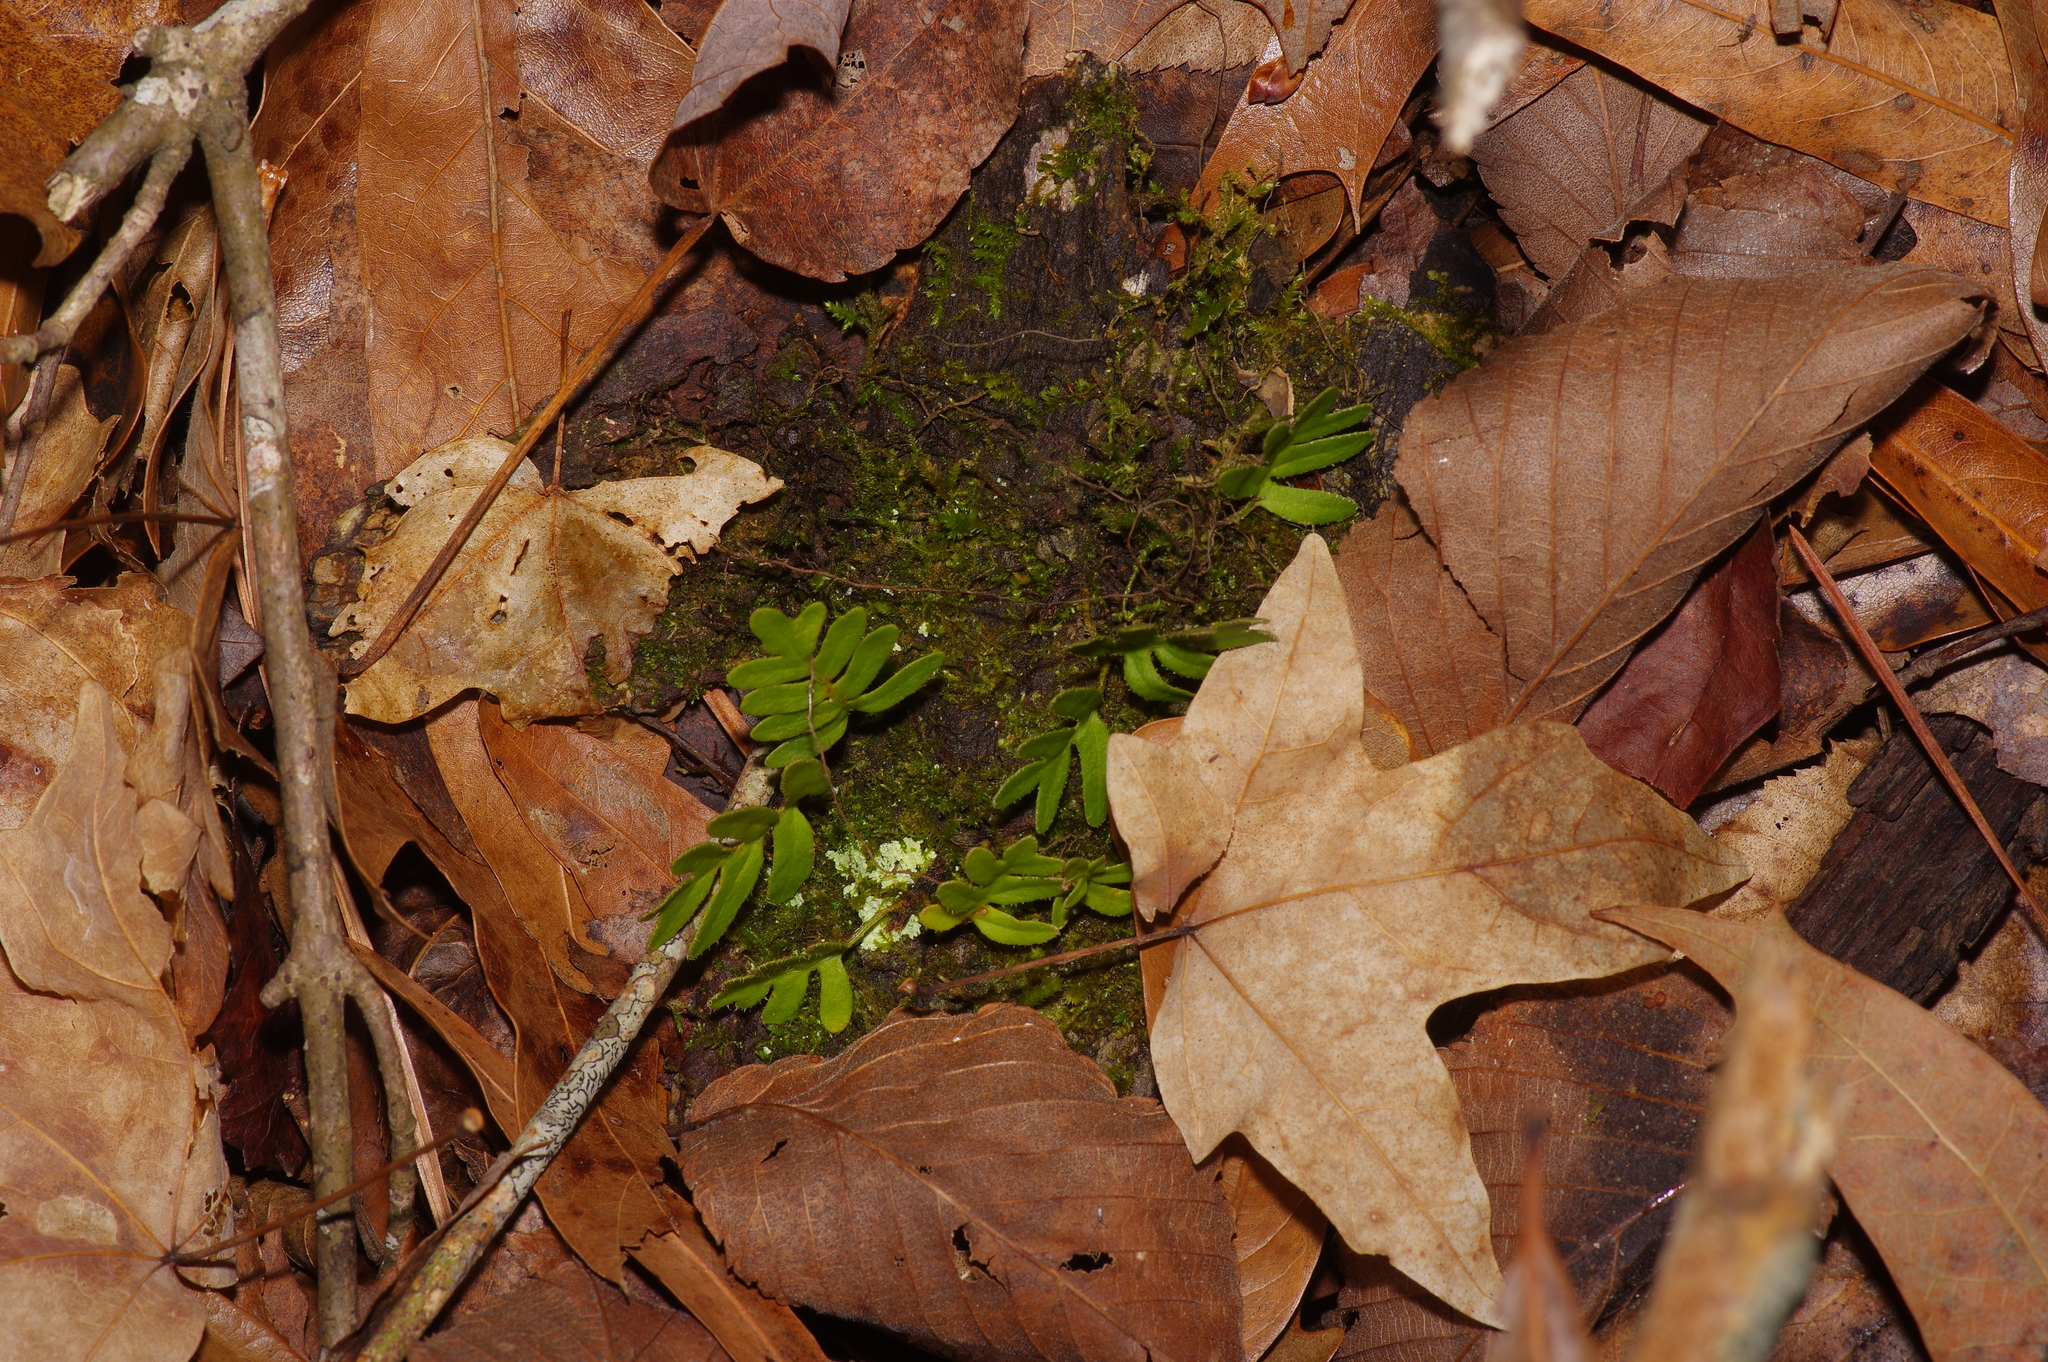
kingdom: Plantae
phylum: Tracheophyta
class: Polypodiopsida
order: Polypodiales
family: Polypodiaceae
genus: Pleopeltis
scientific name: Pleopeltis michauxiana
